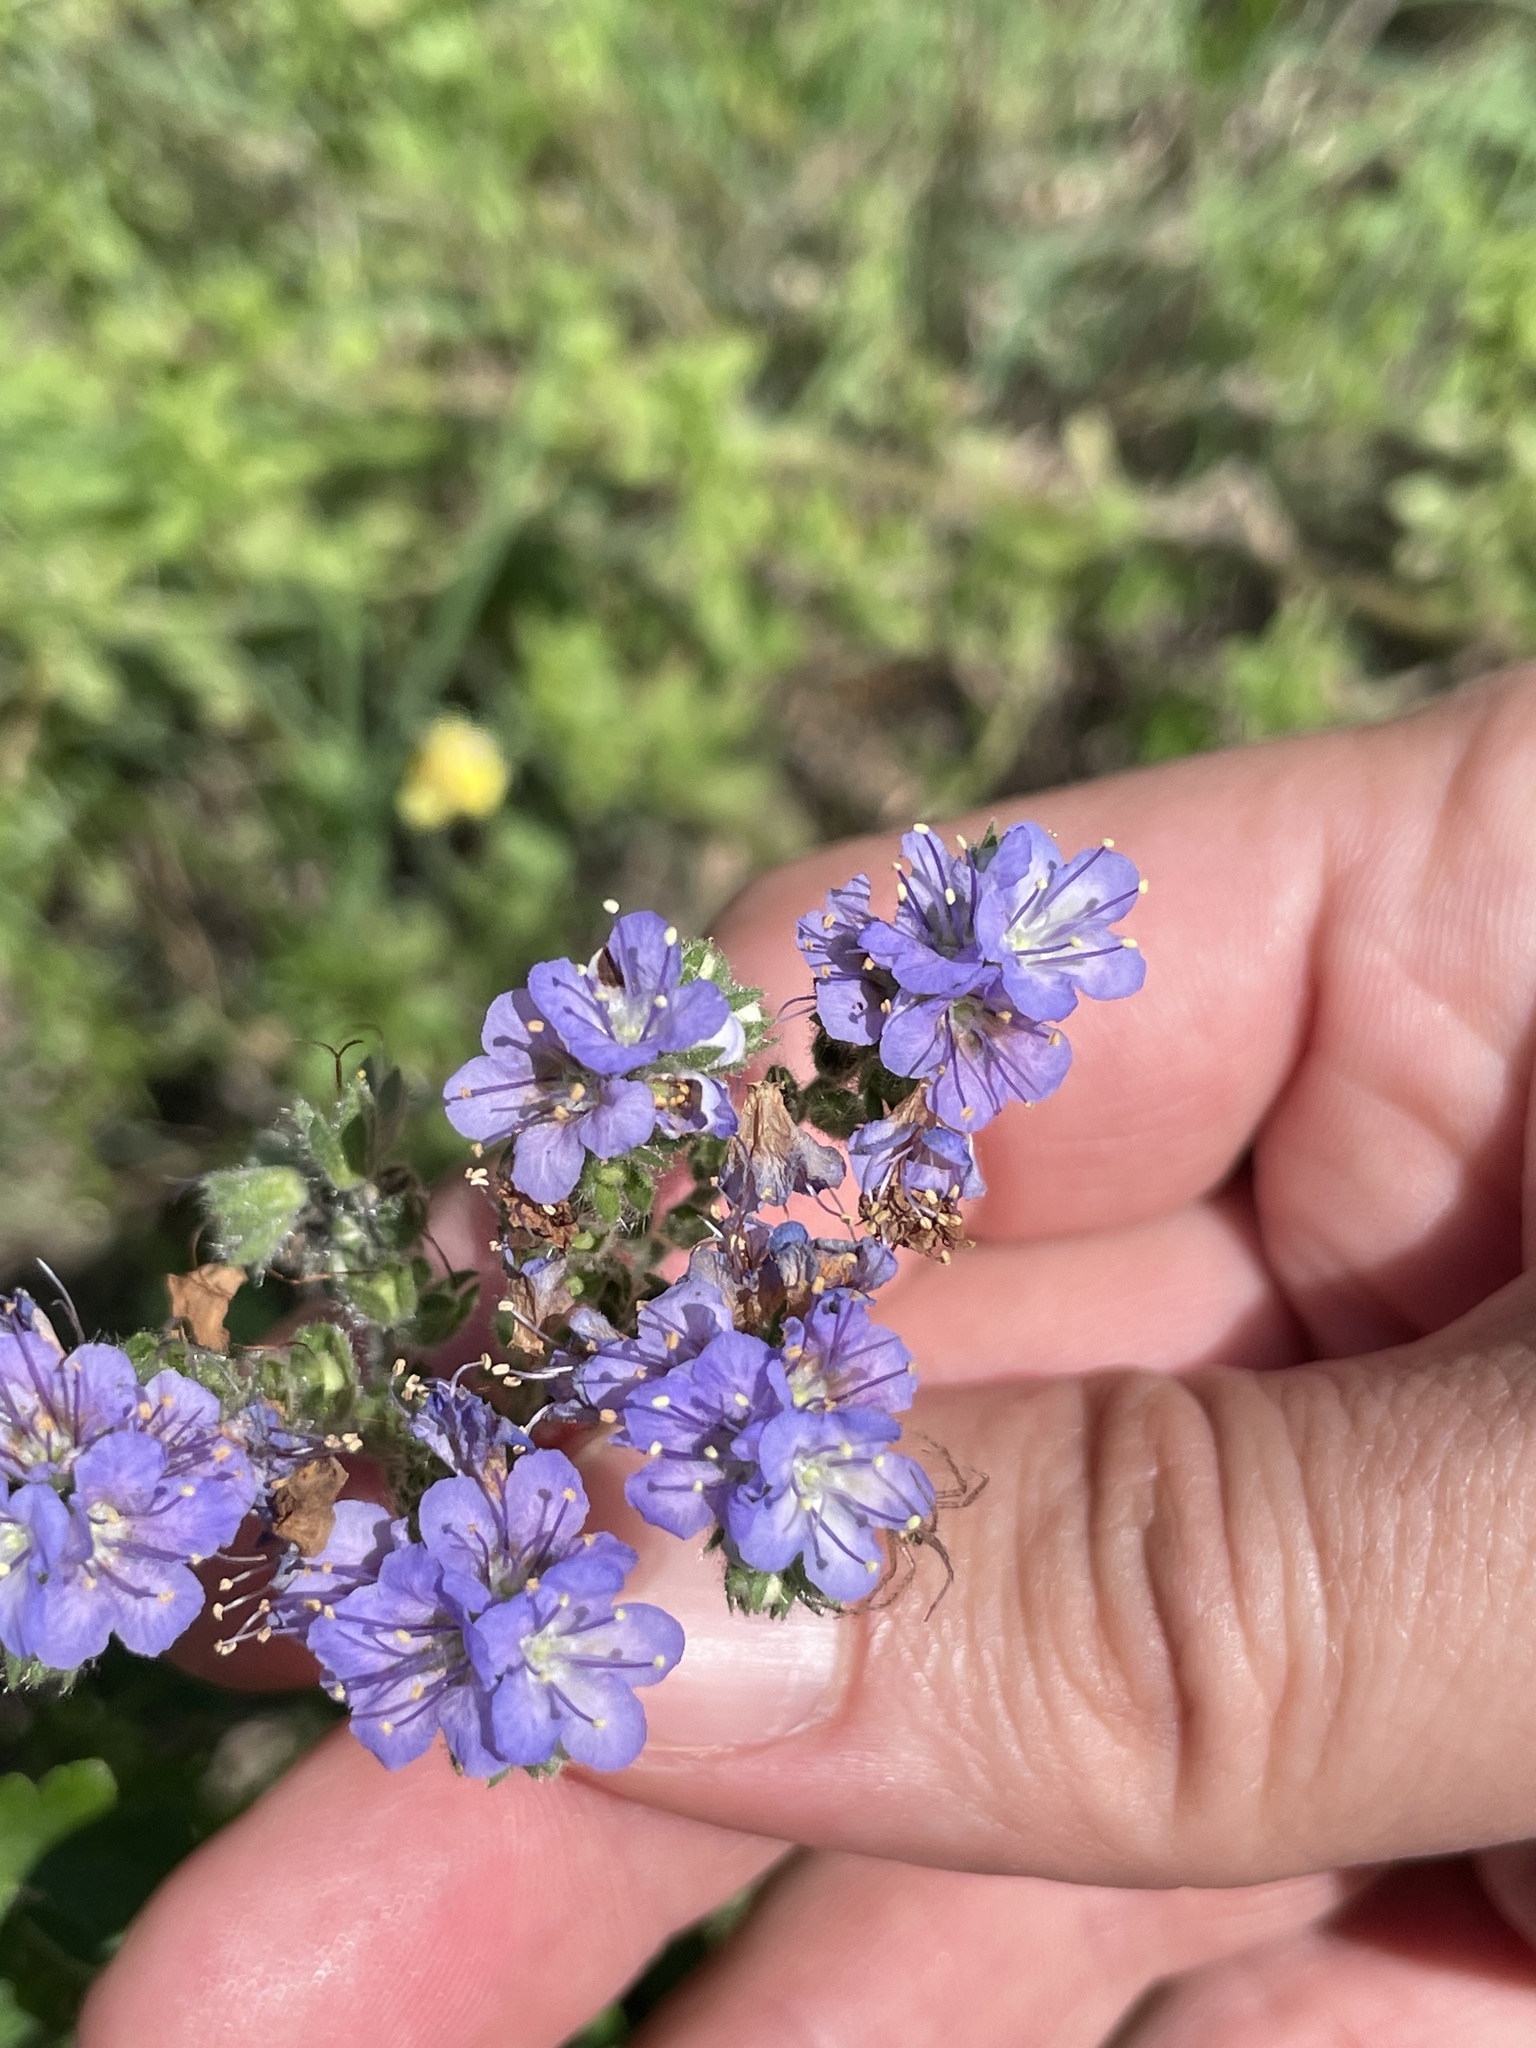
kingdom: Plantae
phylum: Tracheophyta
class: Magnoliopsida
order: Boraginales
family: Hydrophyllaceae
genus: Phacelia
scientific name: Phacelia congesta
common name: Blue curls
